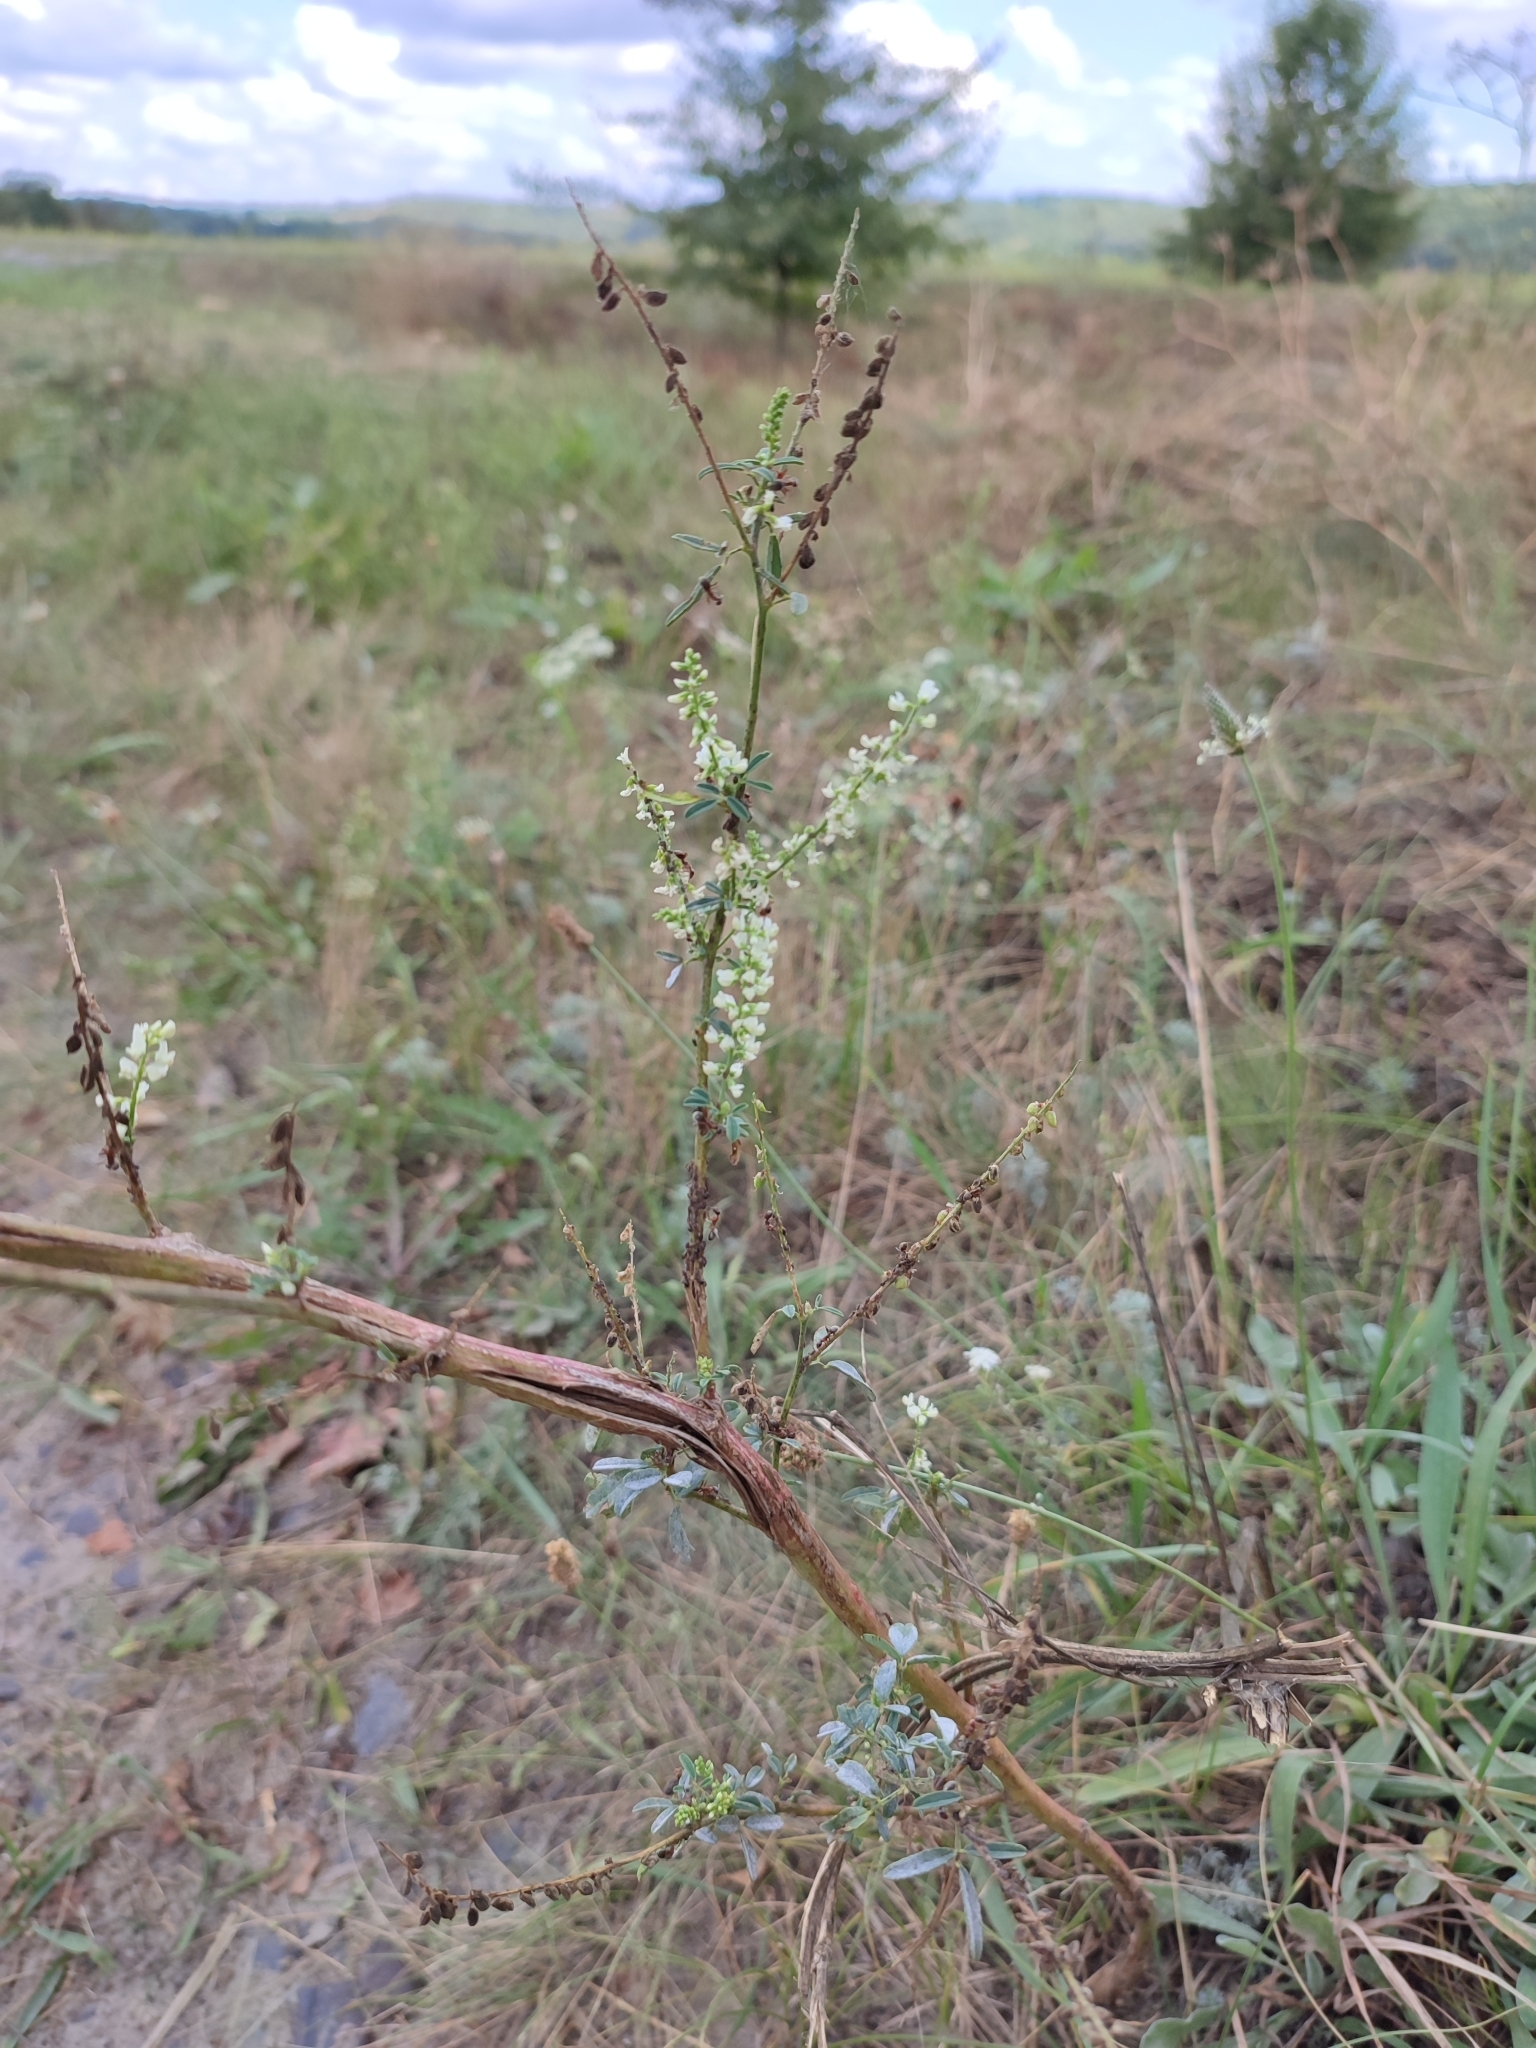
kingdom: Plantae
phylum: Tracheophyta
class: Magnoliopsida
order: Fabales
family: Fabaceae
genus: Melilotus
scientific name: Melilotus albus
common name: White melilot
